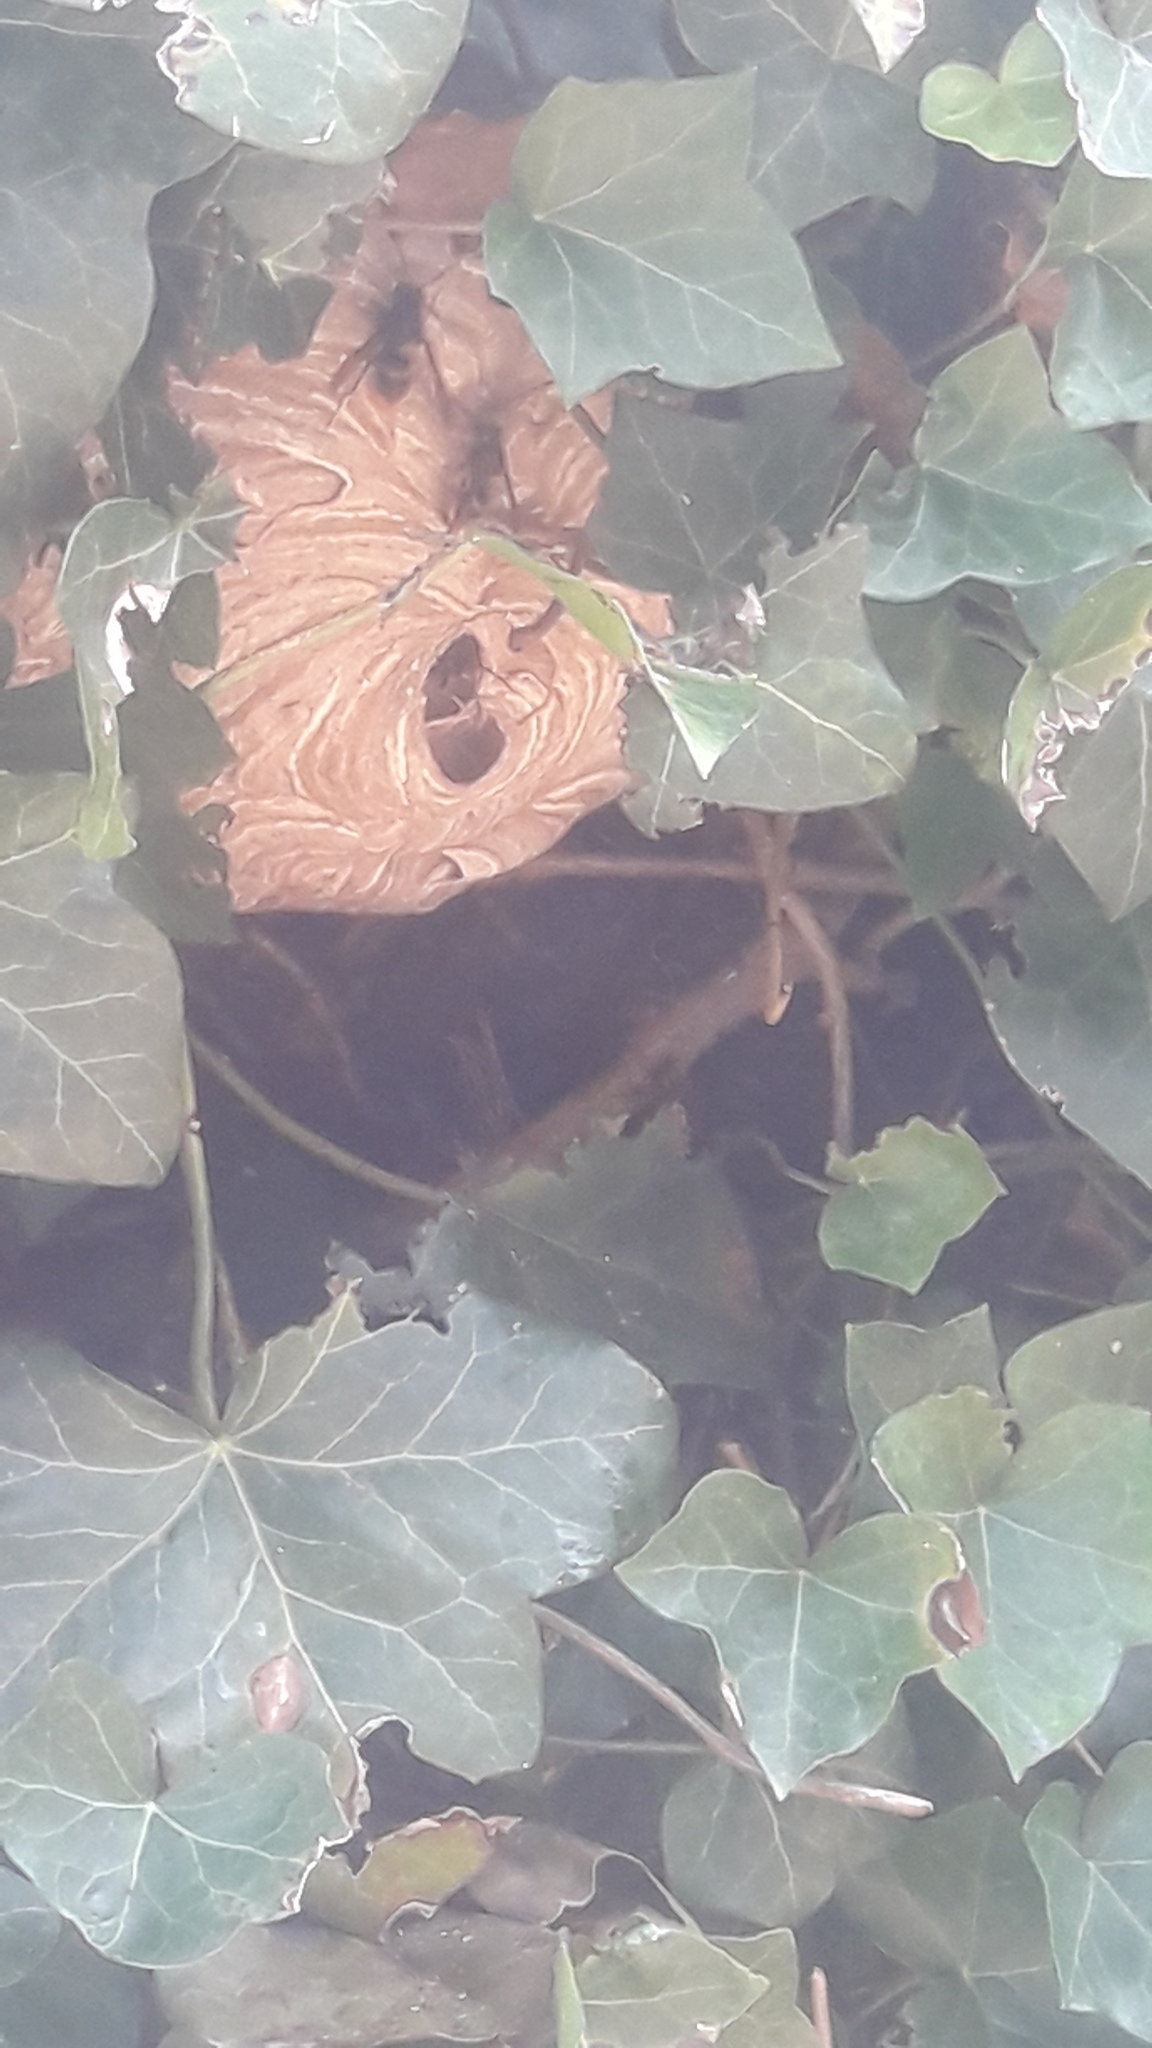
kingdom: Animalia
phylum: Arthropoda
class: Insecta
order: Hymenoptera
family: Vespidae
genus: Vespa
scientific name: Vespa velutina
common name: Asian hornet
